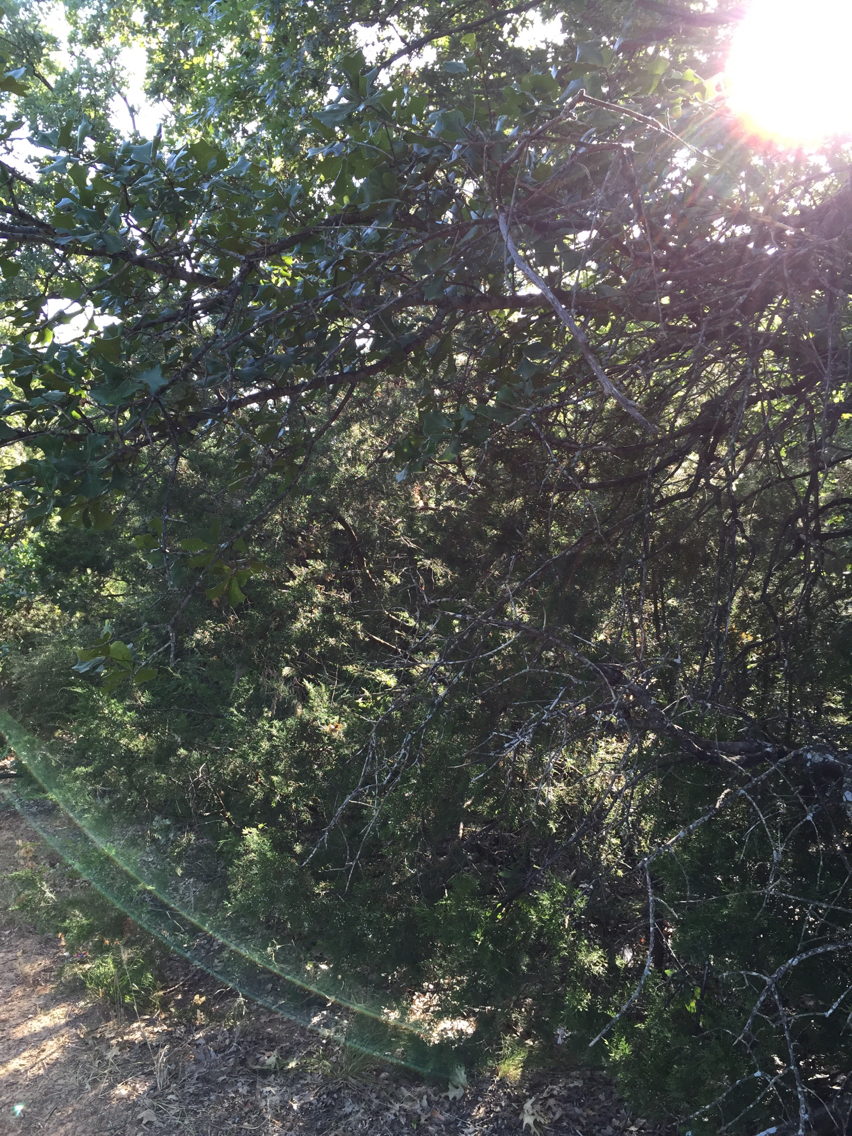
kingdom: Plantae
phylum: Tracheophyta
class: Magnoliopsida
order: Fagales
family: Fagaceae
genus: Quercus
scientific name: Quercus marilandica
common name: Blackjack oak
